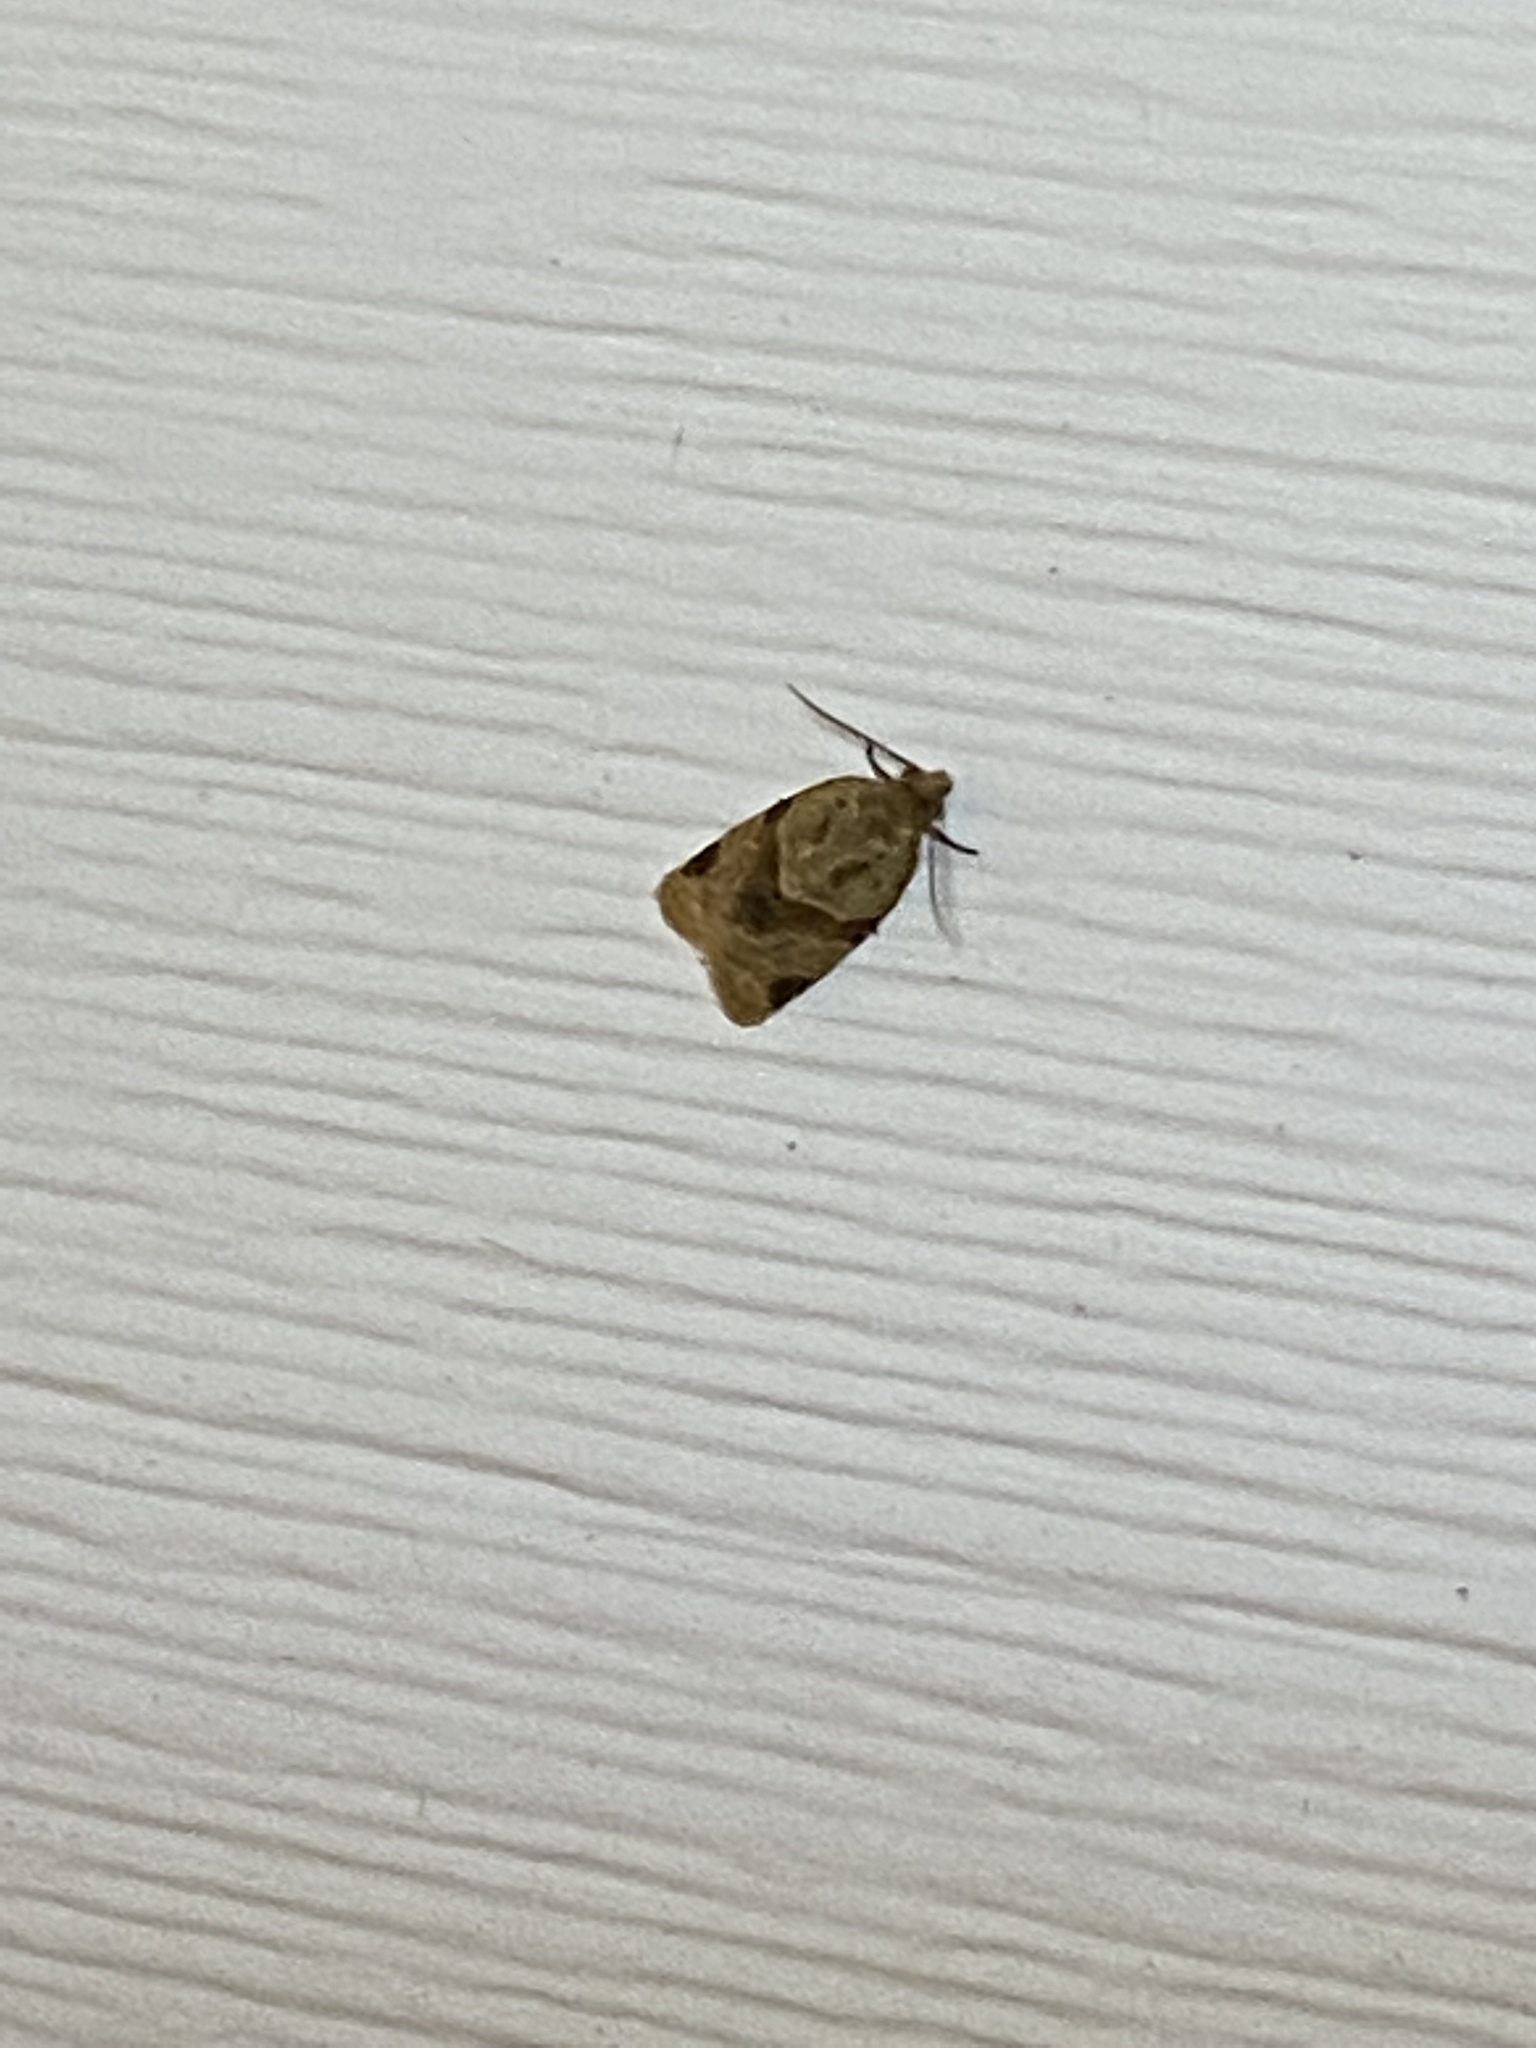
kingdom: Animalia
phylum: Arthropoda
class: Insecta
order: Lepidoptera
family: Tortricidae
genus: Clepsis
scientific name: Clepsis peritana
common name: Garden tortrix
